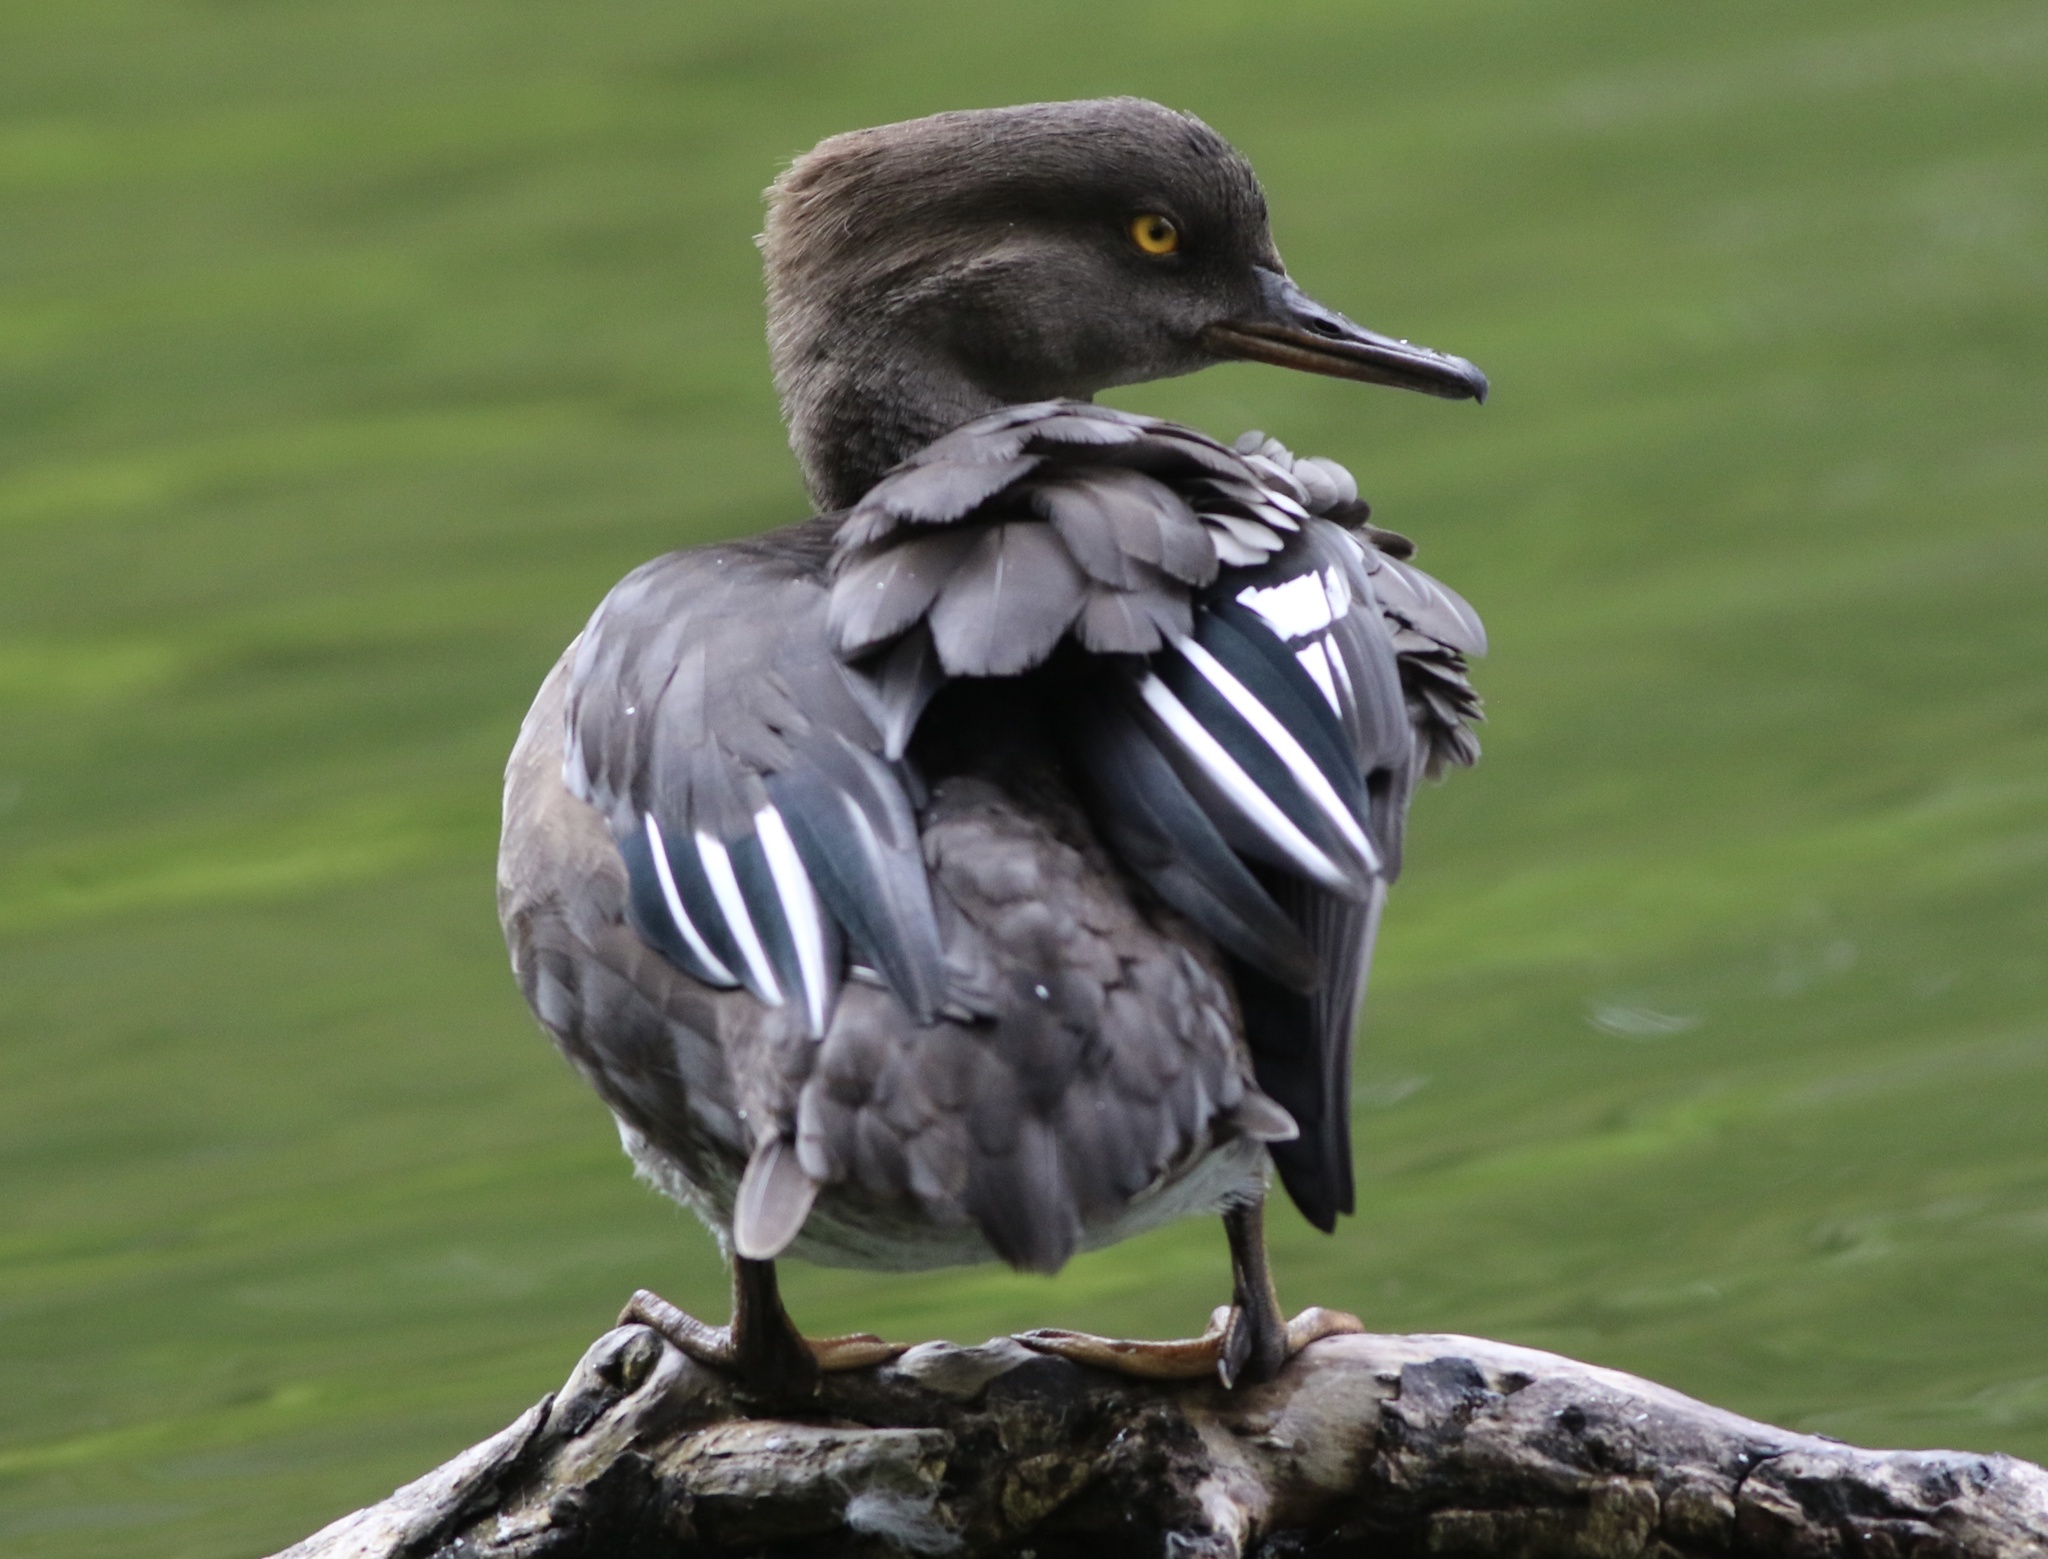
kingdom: Animalia
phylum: Chordata
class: Aves
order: Anseriformes
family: Anatidae
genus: Lophodytes
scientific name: Lophodytes cucullatus
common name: Hooded merganser
